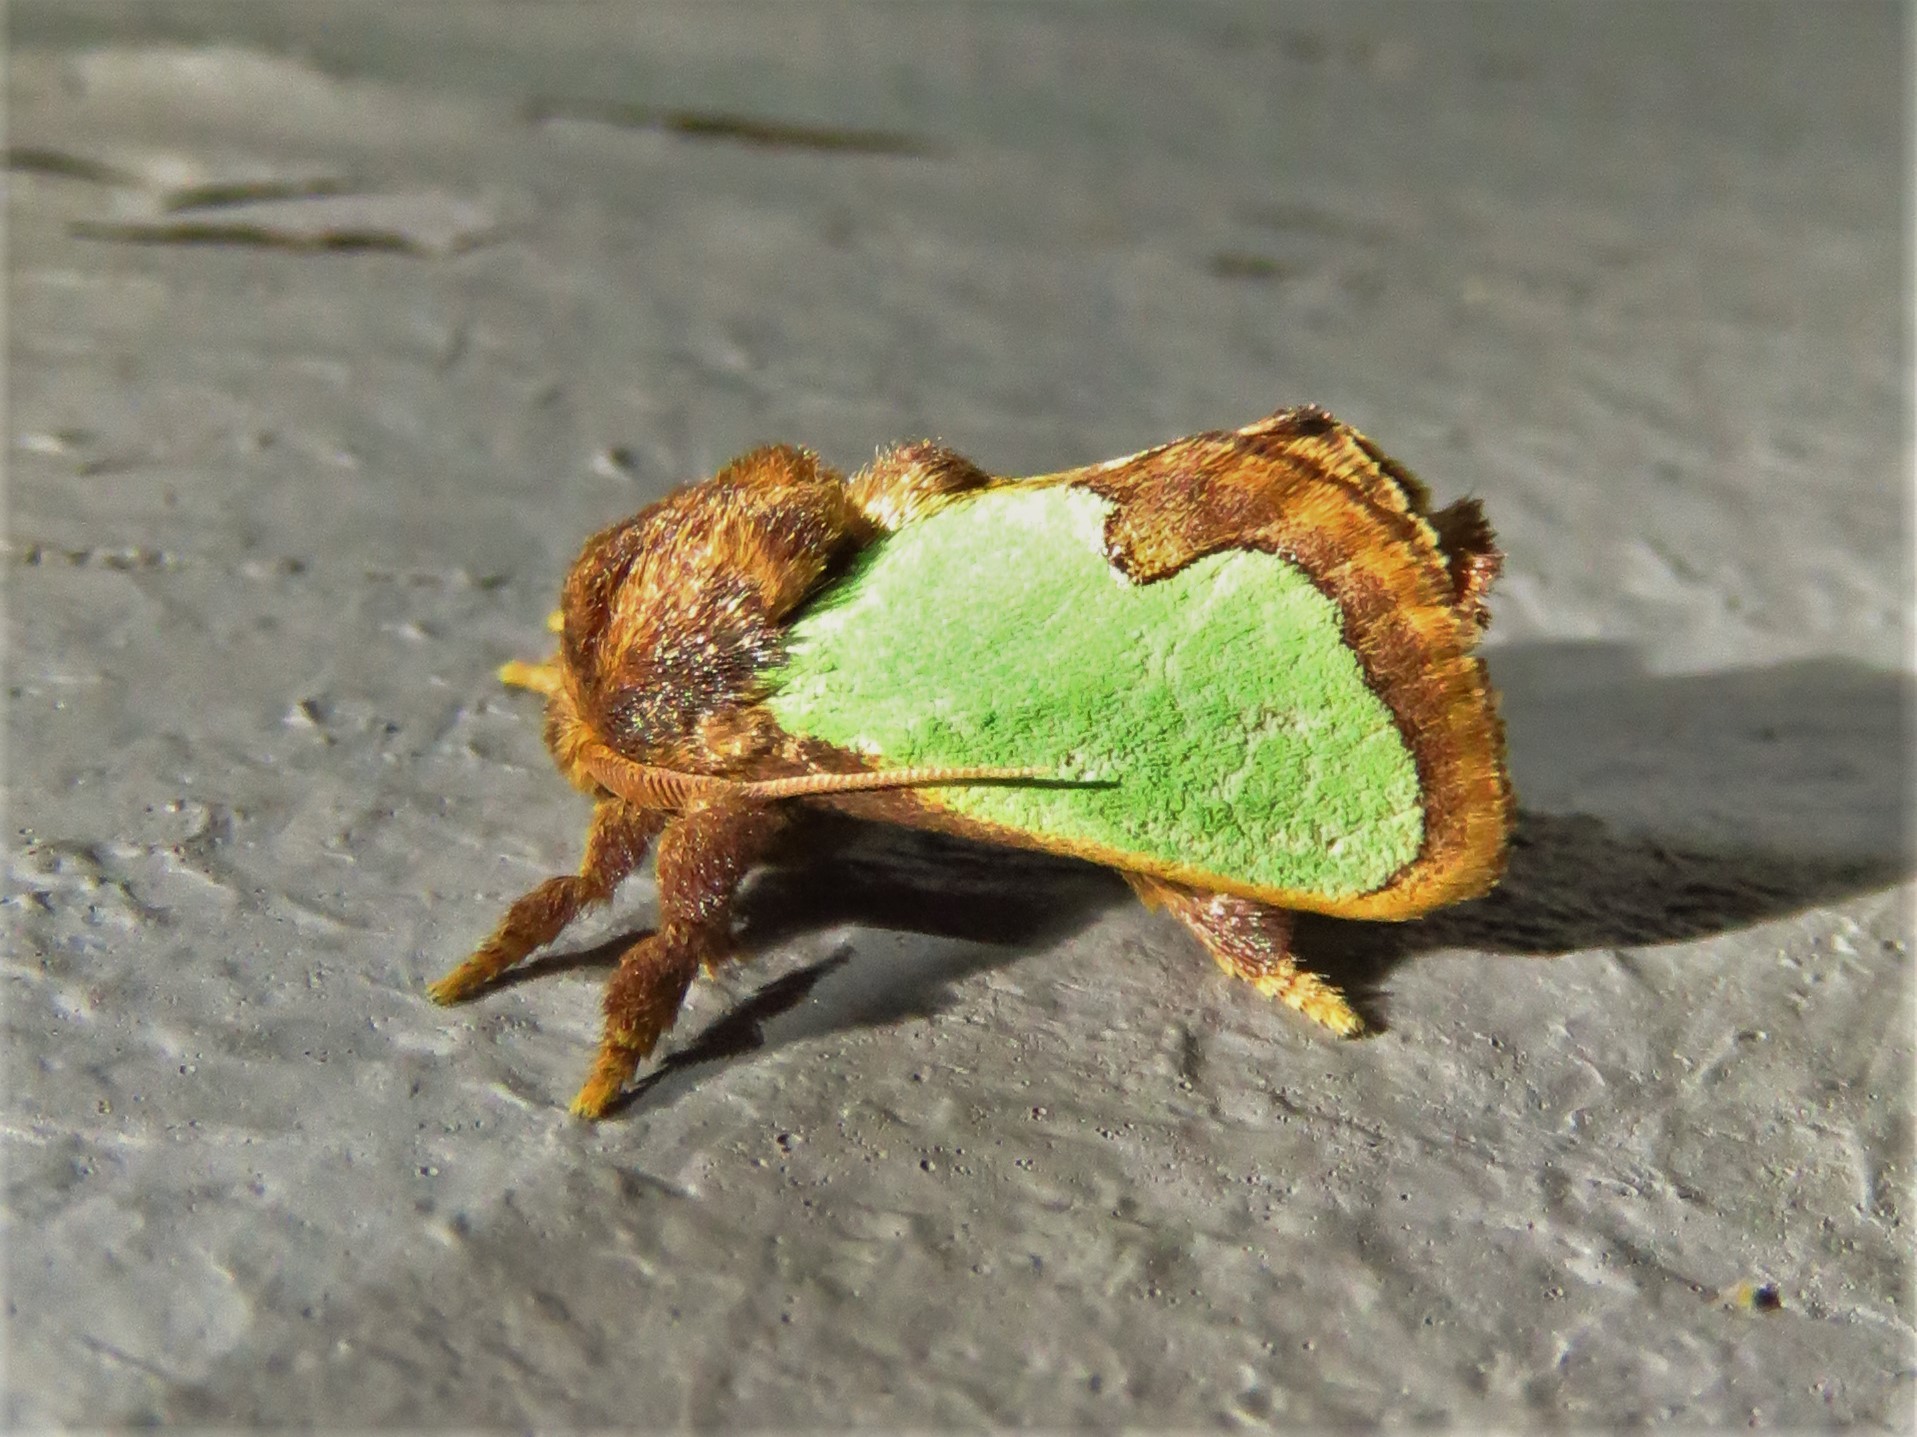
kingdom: Animalia
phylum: Arthropoda
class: Insecta
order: Lepidoptera
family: Limacodidae
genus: Euclea
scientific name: Euclea incisa
